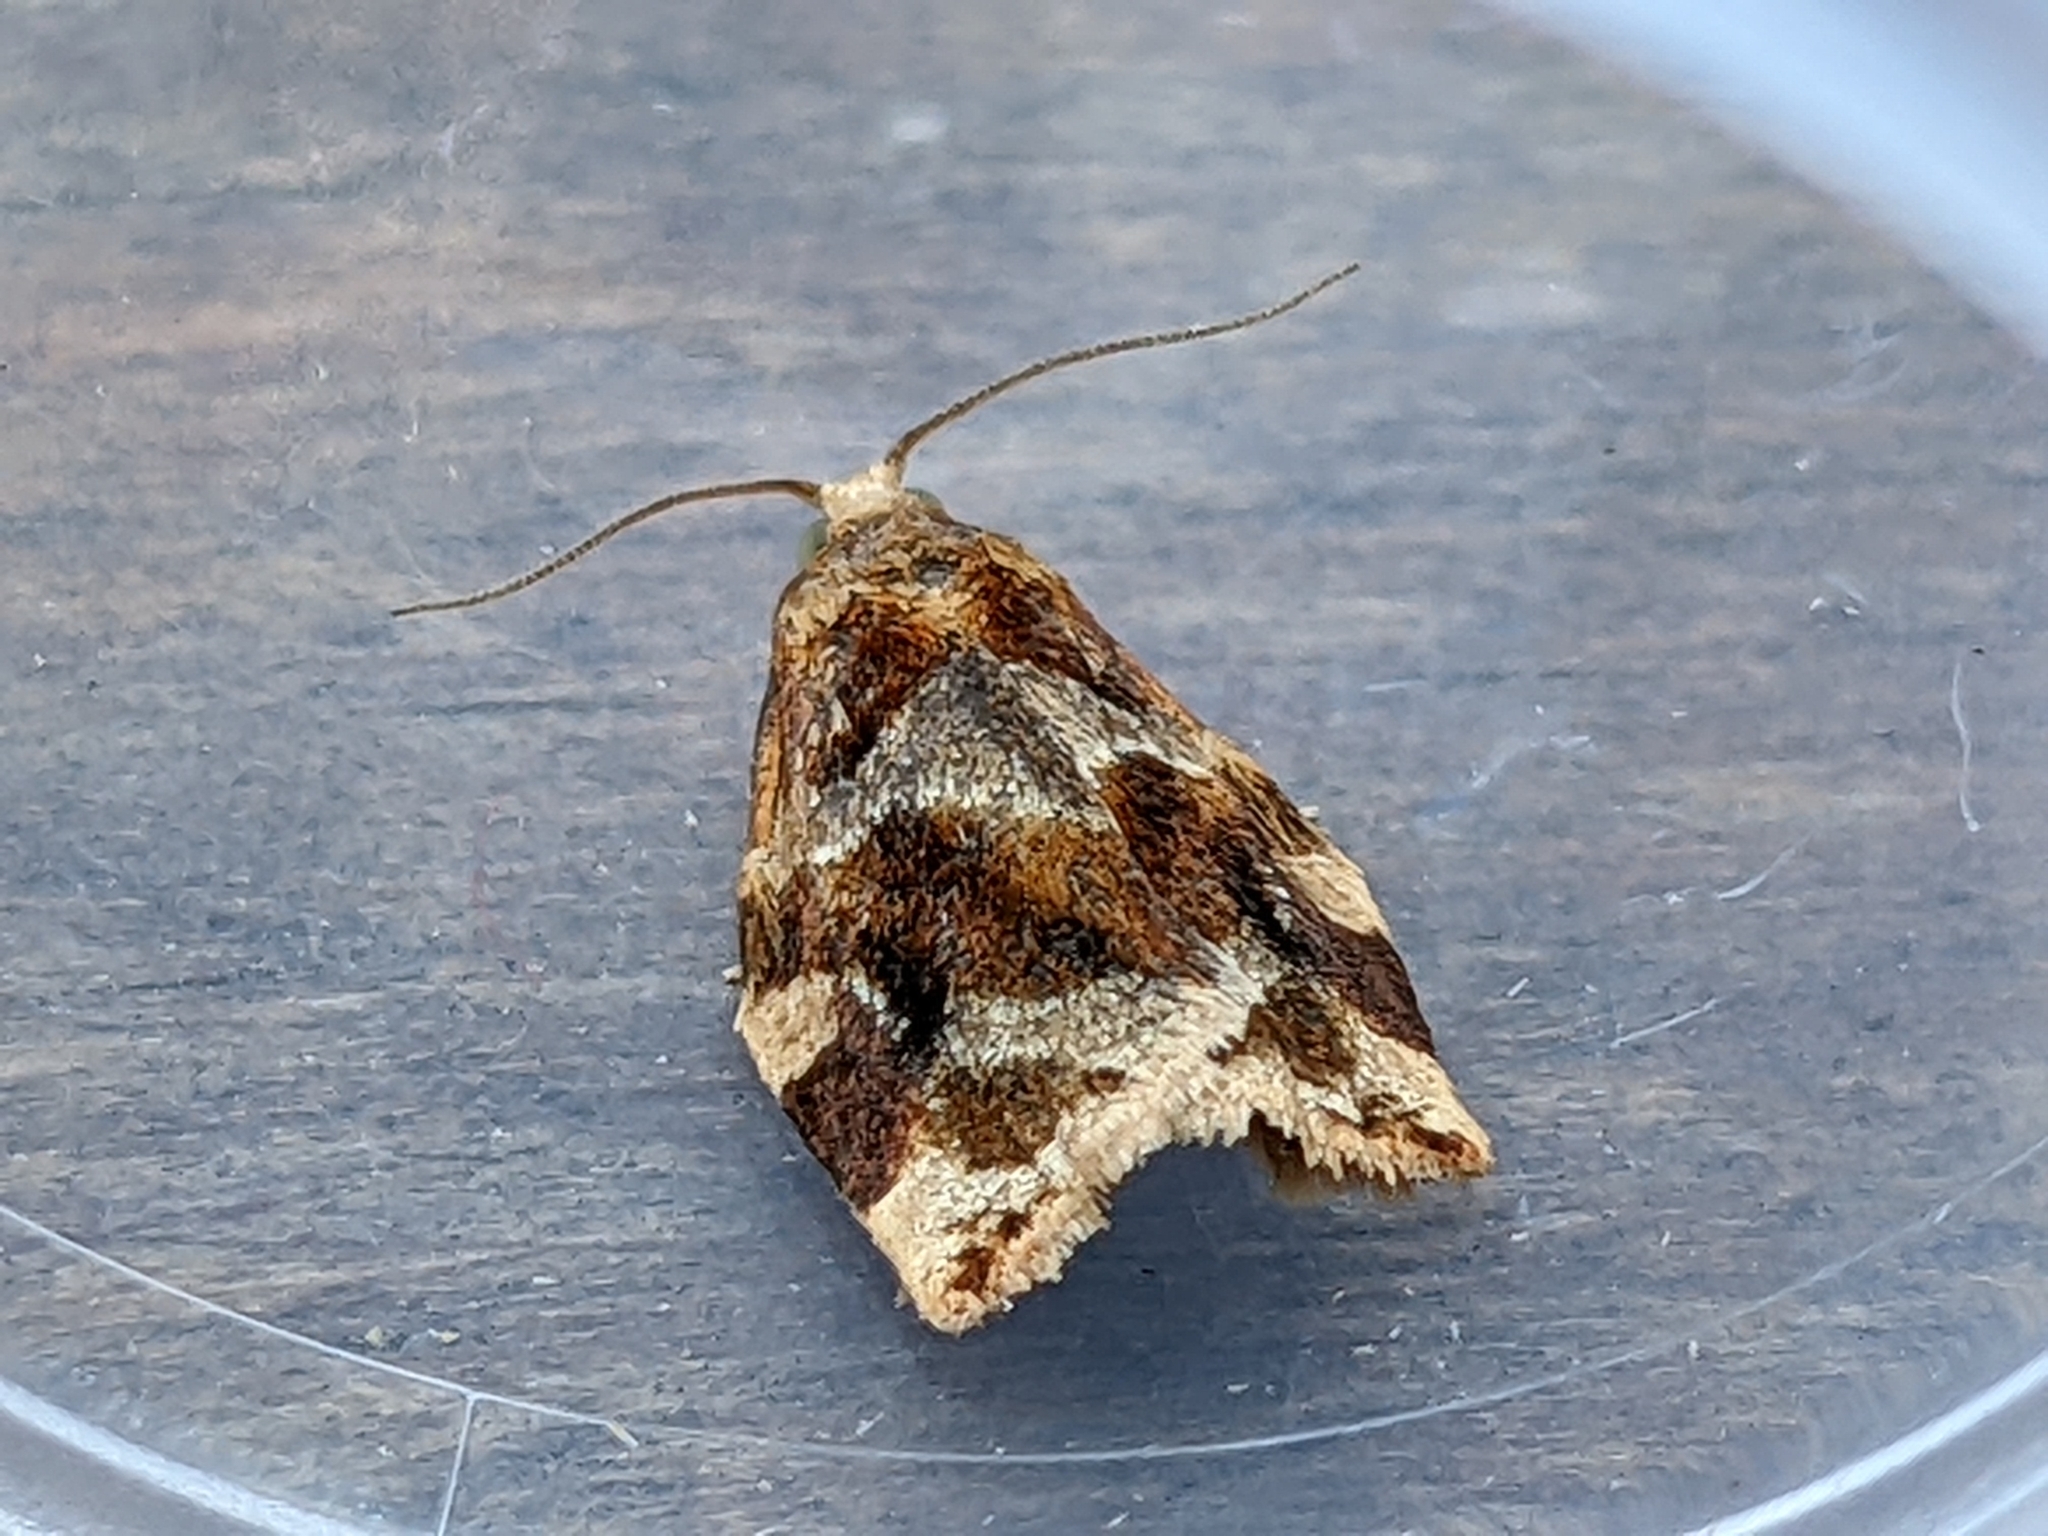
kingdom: Animalia
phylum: Arthropoda
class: Insecta
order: Lepidoptera
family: Tortricidae
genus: Archips
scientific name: Archips xylosteana
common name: Variegated golden tortrix
